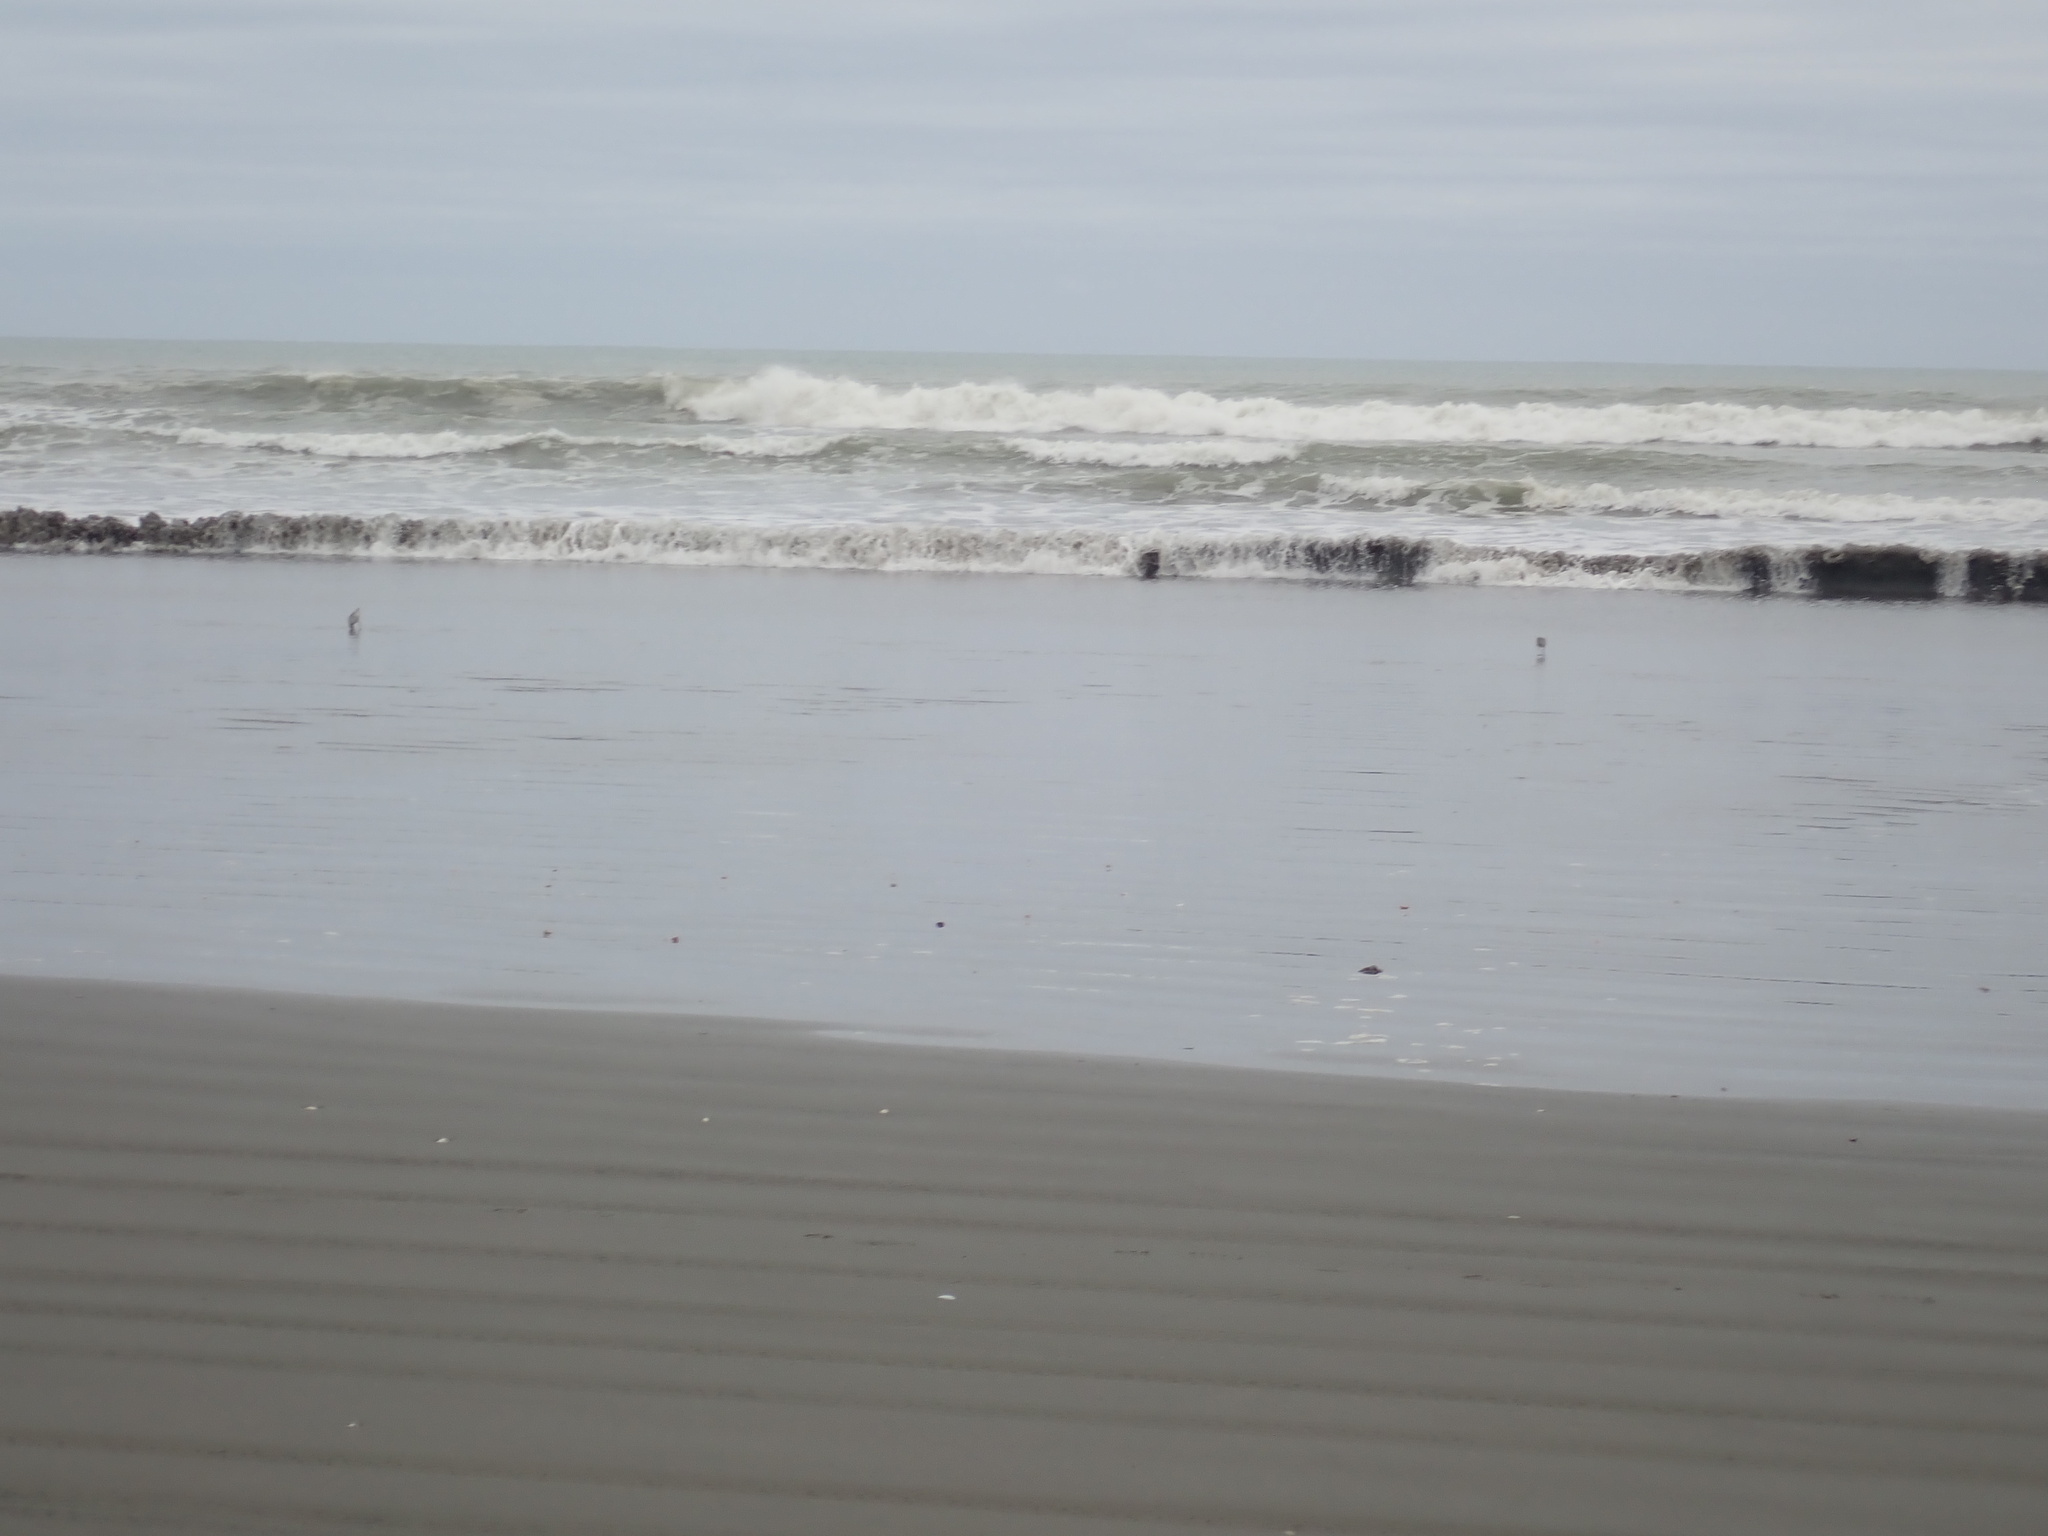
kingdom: Animalia
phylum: Chordata
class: Aves
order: Charadriiformes
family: Scolopacidae
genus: Limosa
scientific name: Limosa lapponica
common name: Bar-tailed godwit
